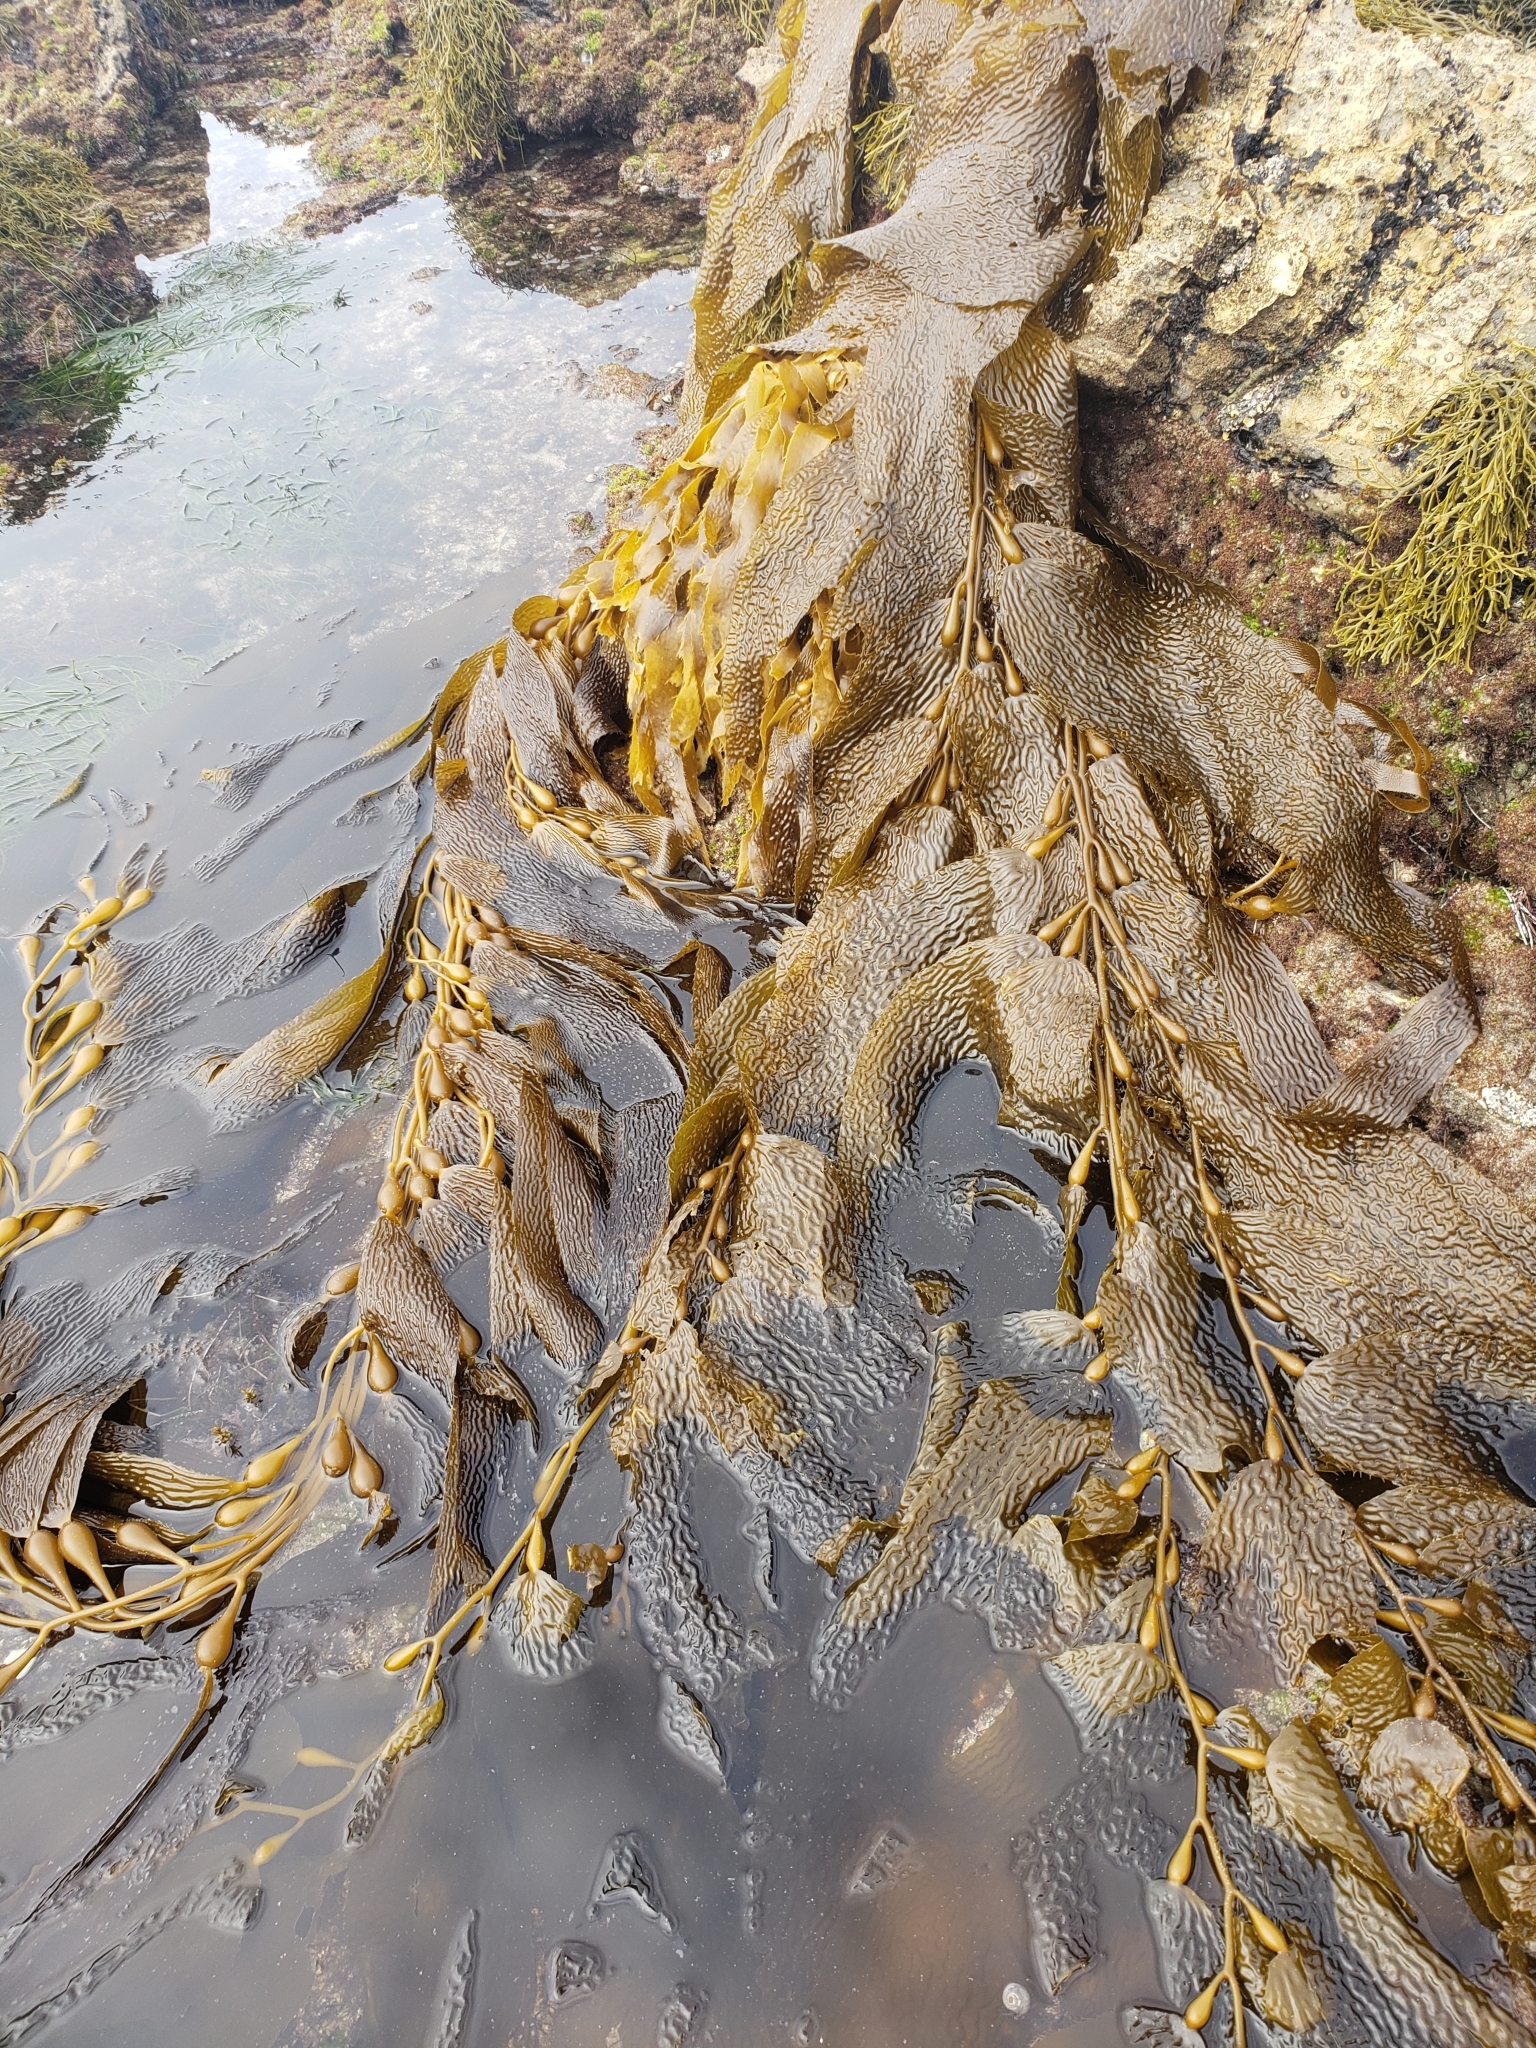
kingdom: Chromista
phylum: Ochrophyta
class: Phaeophyceae
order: Laminariales
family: Laminariaceae
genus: Macrocystis
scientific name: Macrocystis pyrifera
